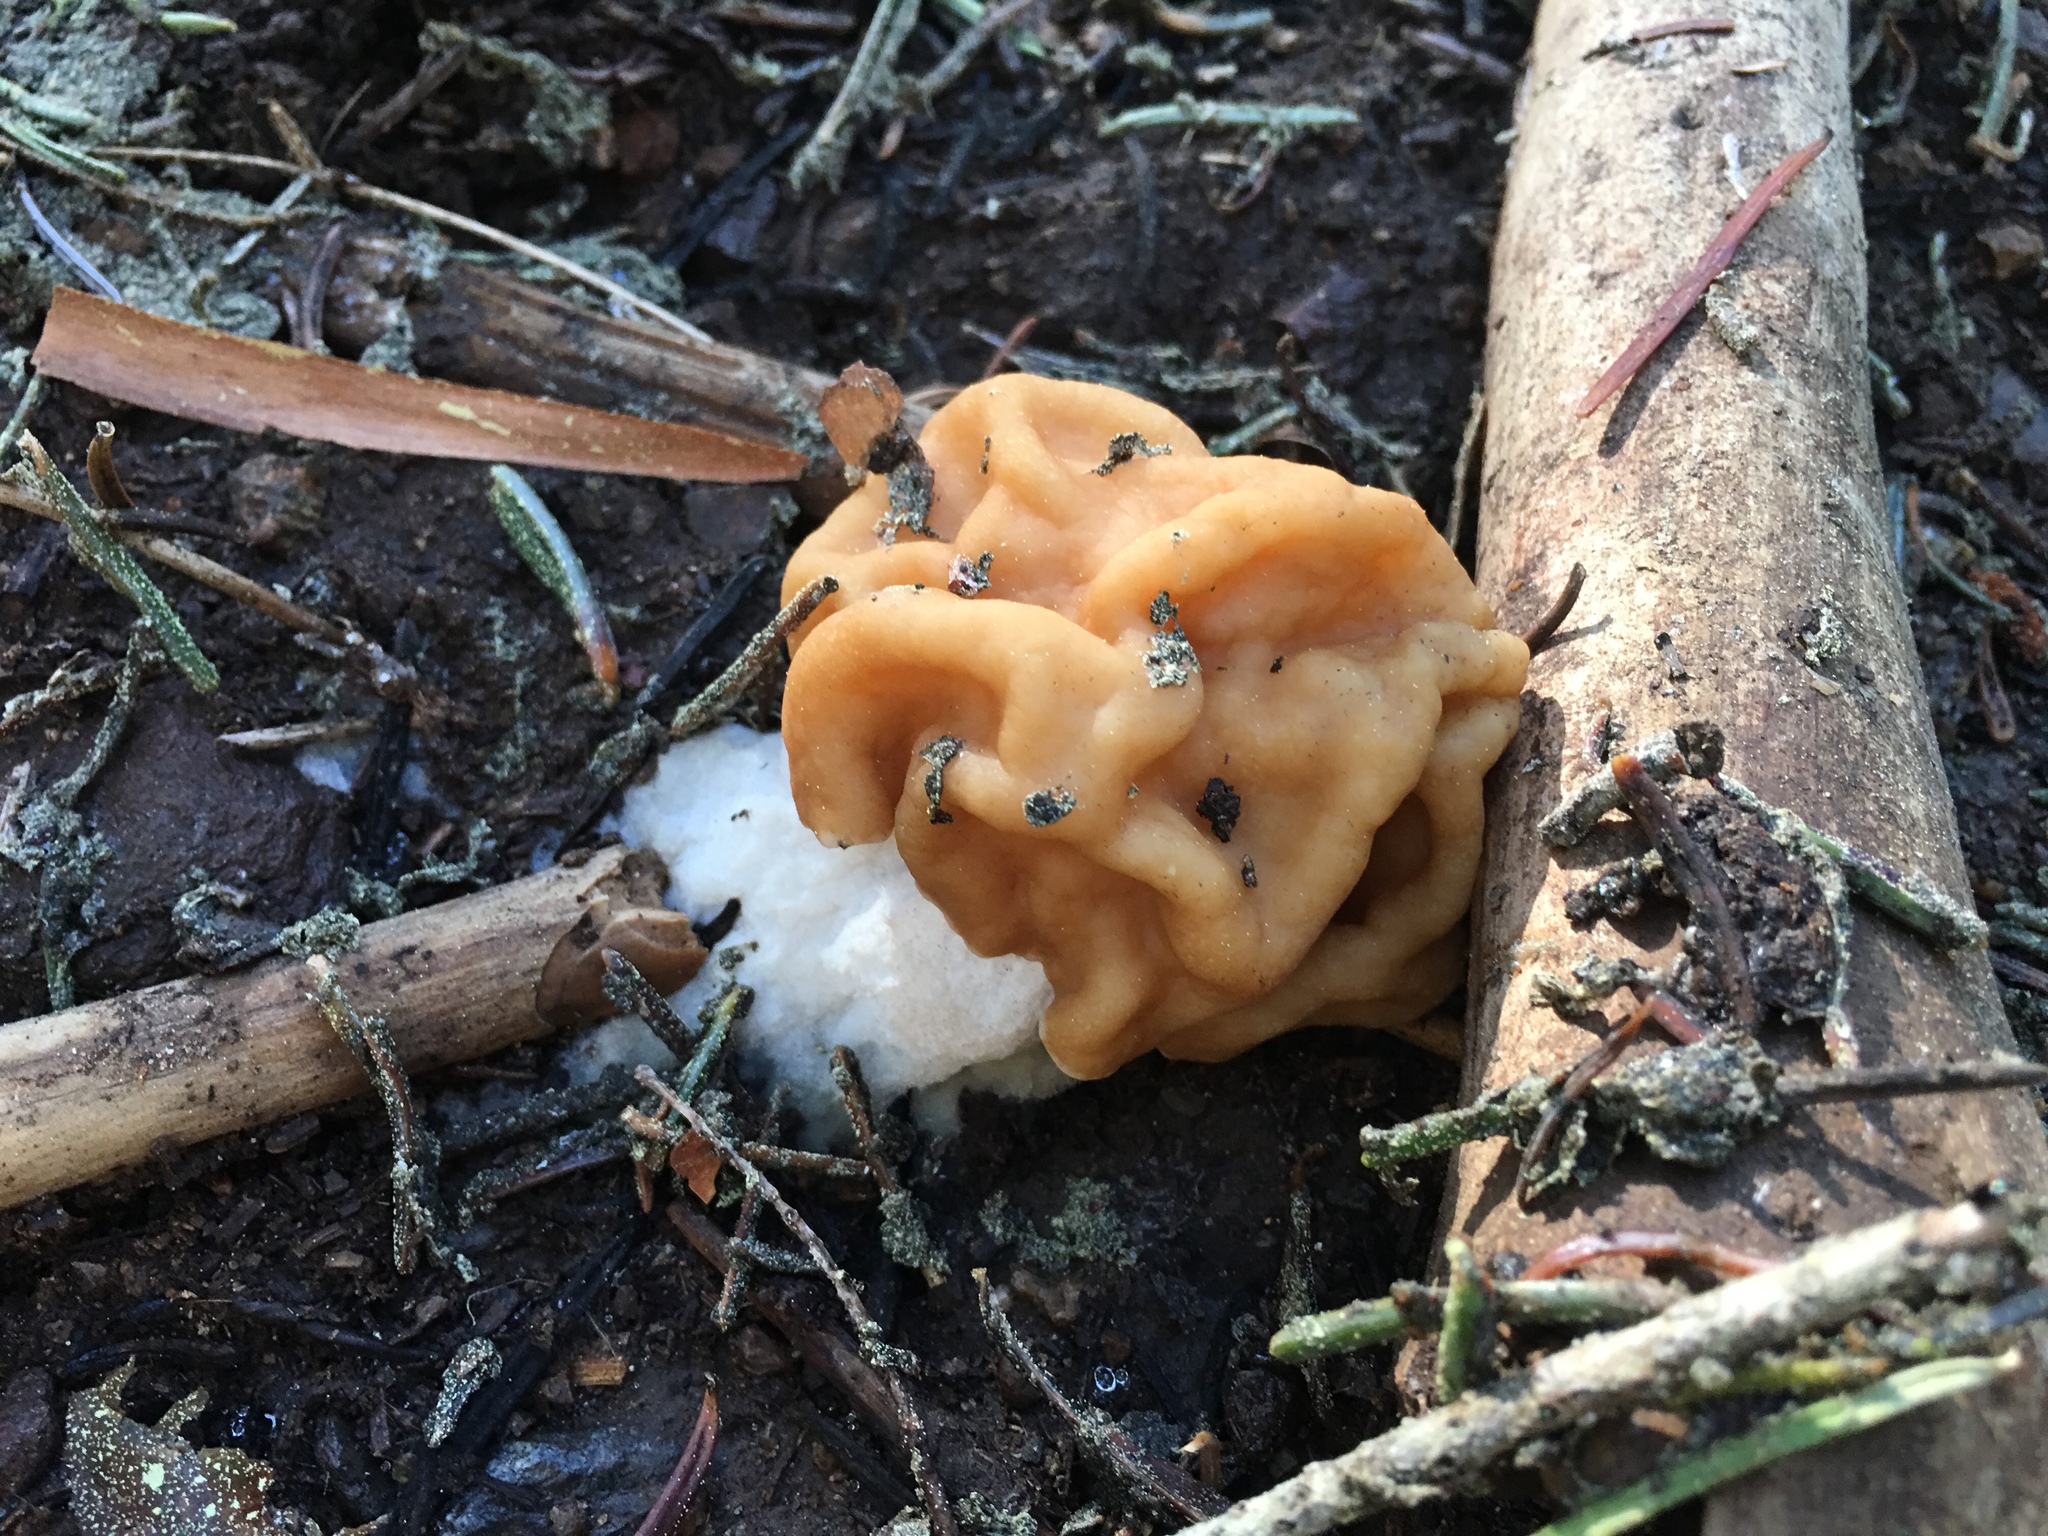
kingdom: Fungi
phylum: Ascomycota
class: Pezizomycetes
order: Pezizales
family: Discinaceae
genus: Discina
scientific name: Discina montana
